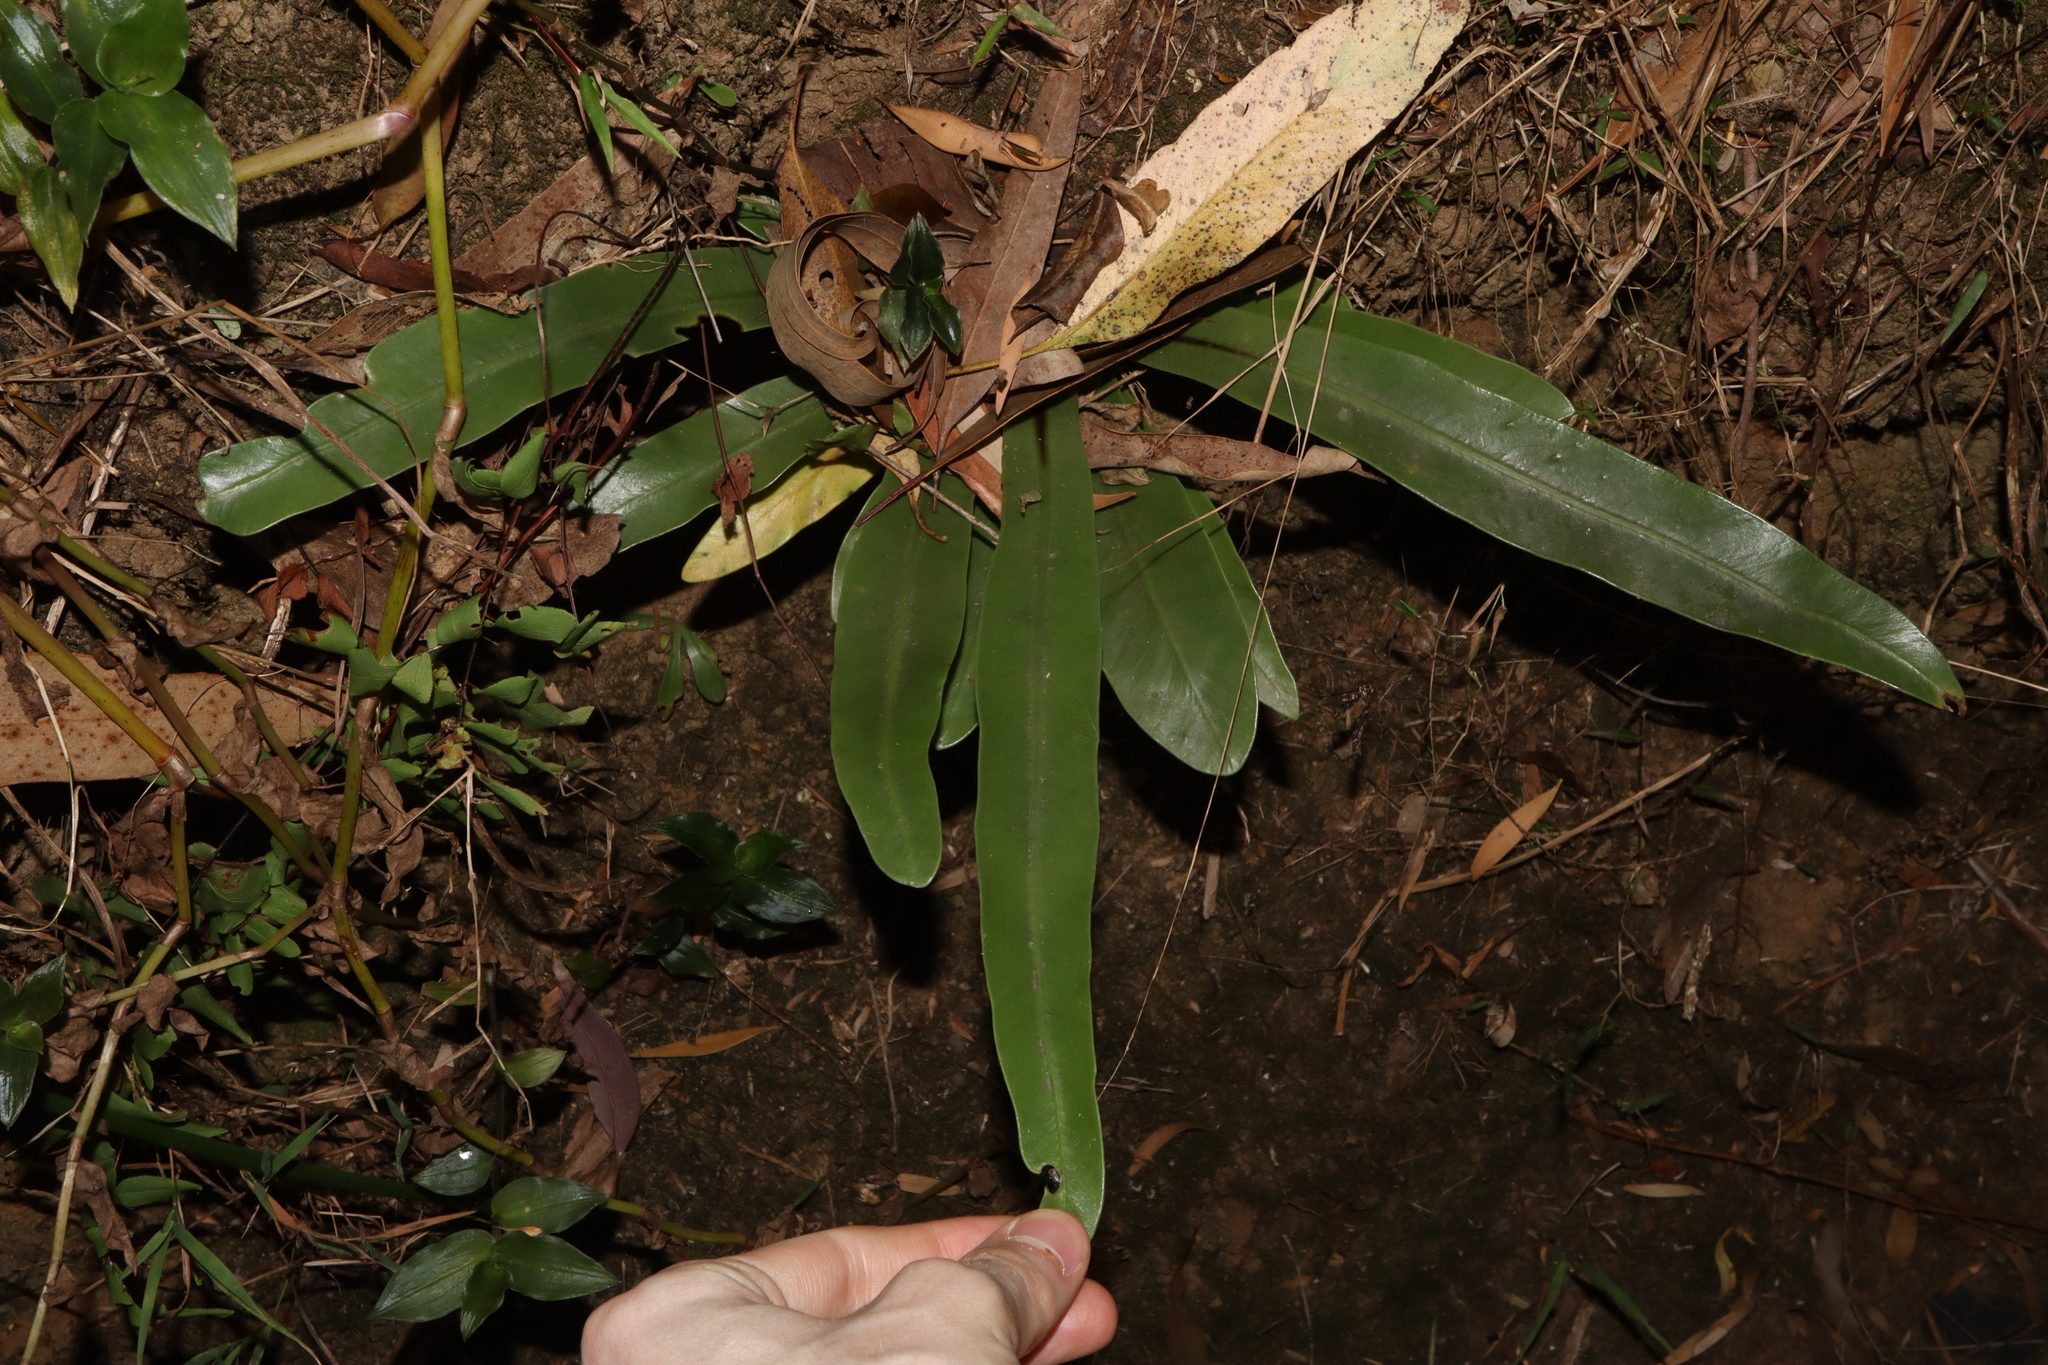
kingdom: Plantae
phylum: Tracheophyta
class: Polypodiopsida
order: Polypodiales
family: Aspleniaceae
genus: Asplenium
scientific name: Asplenium australasicum
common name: Bird's-nest fern
